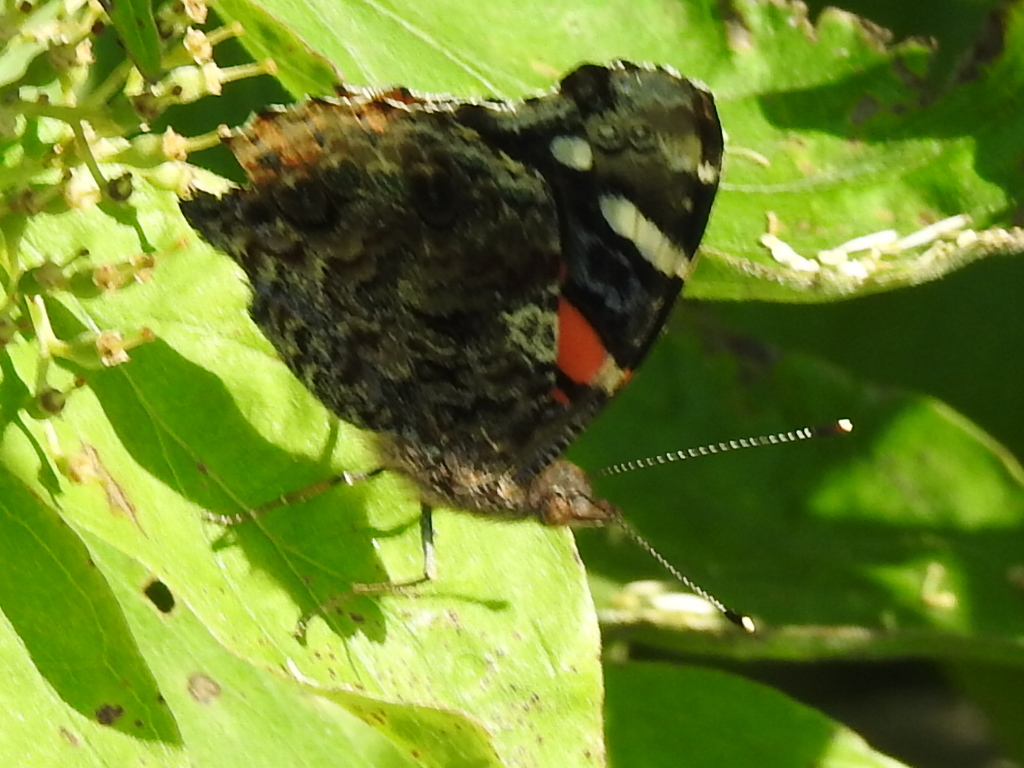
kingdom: Animalia
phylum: Arthropoda
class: Insecta
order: Lepidoptera
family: Nymphalidae
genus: Vanessa
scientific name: Vanessa atalanta
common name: Red admiral
